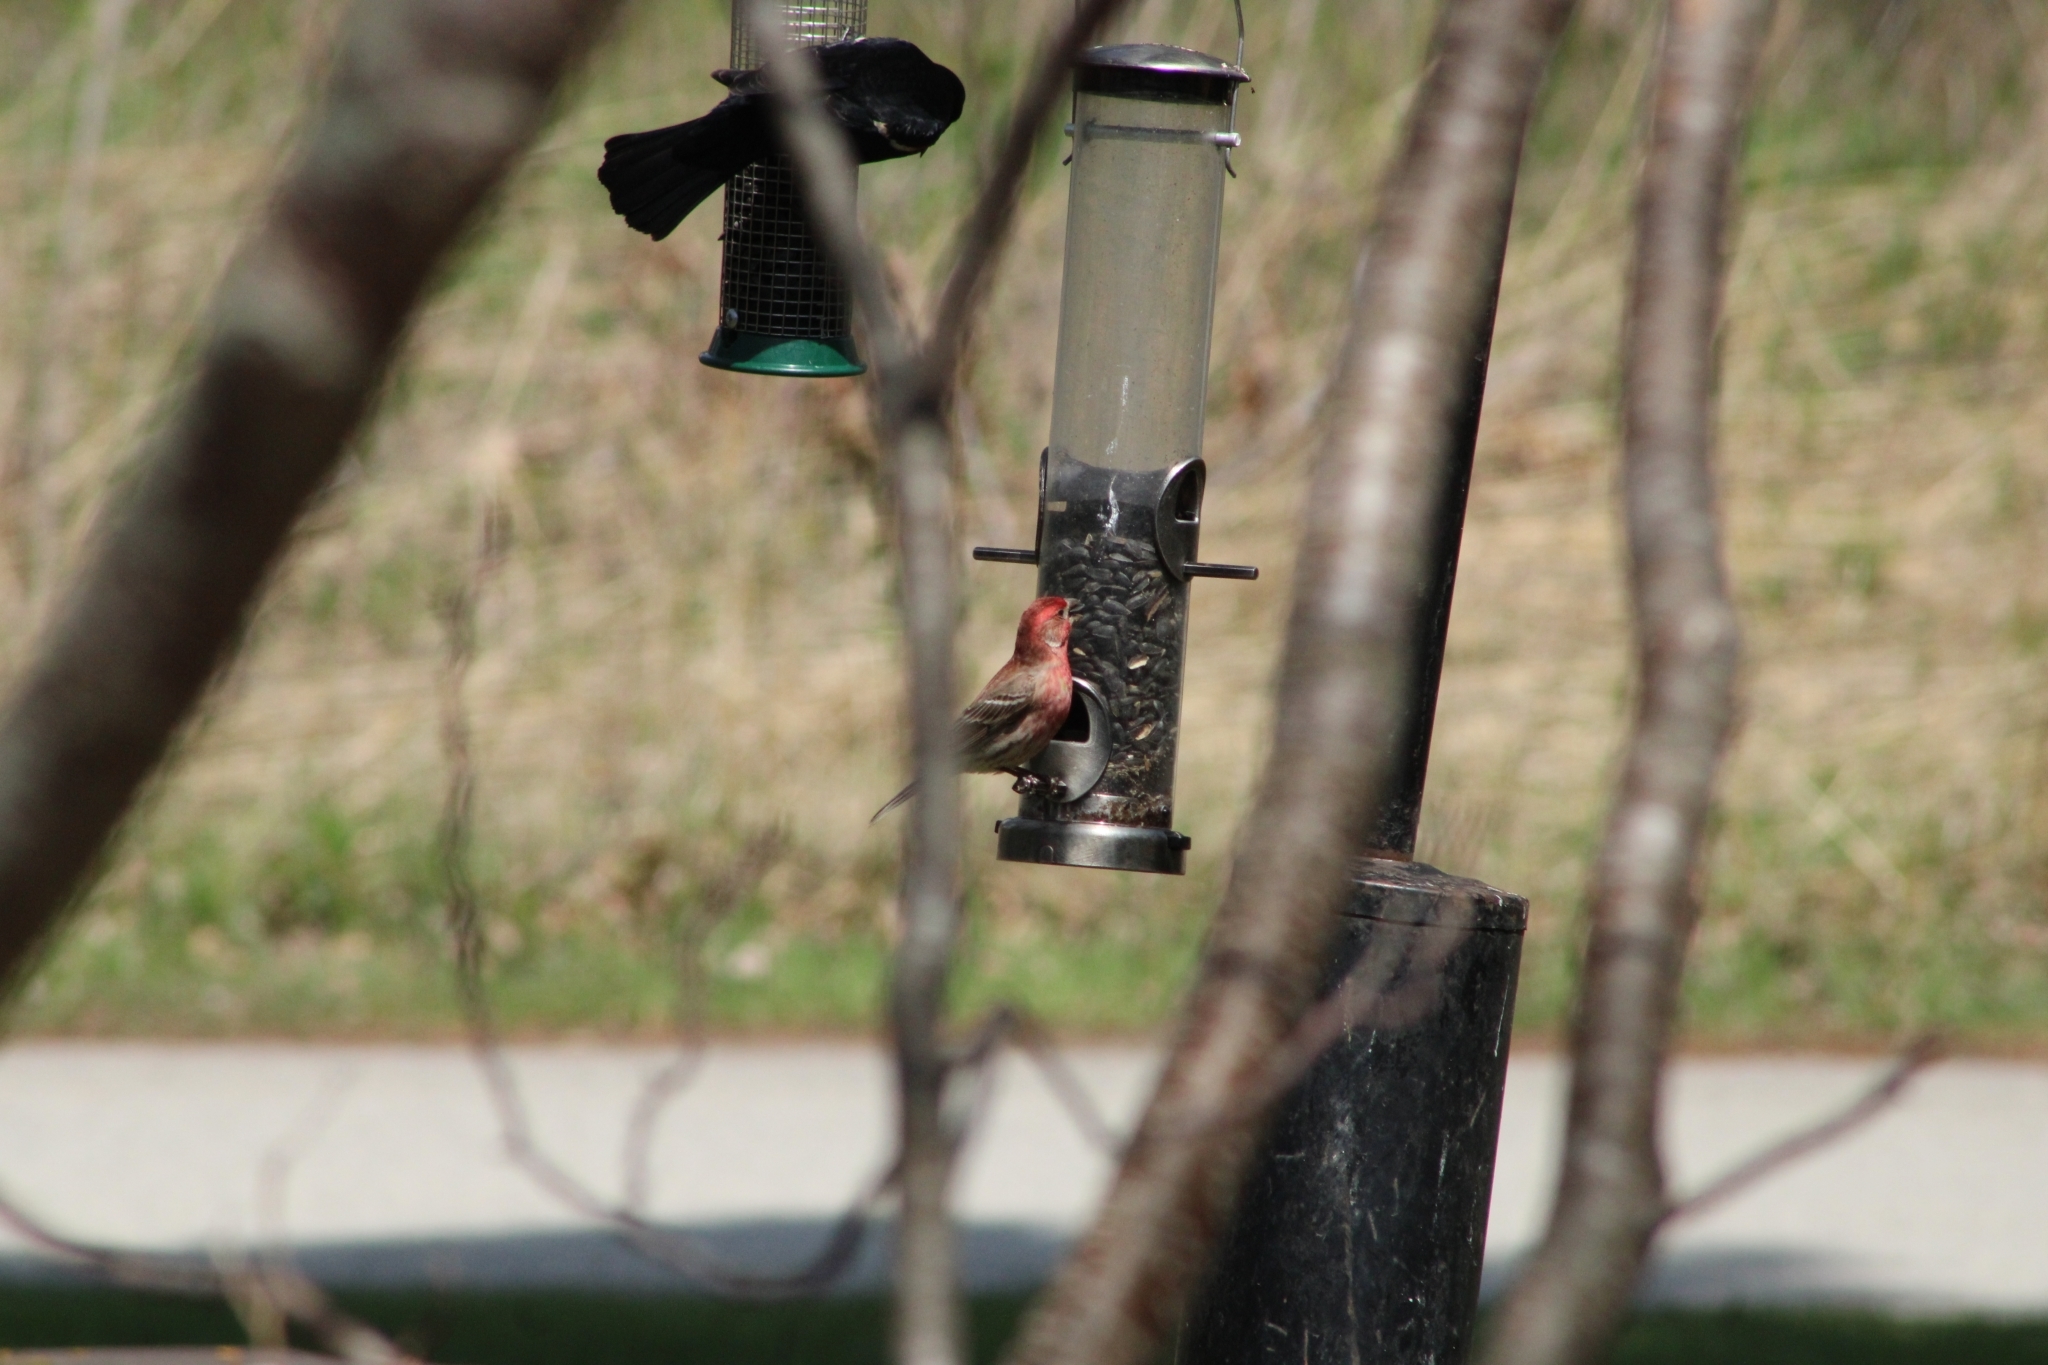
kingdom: Animalia
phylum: Chordata
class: Aves
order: Passeriformes
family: Fringillidae
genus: Haemorhous
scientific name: Haemorhous mexicanus
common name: House finch
